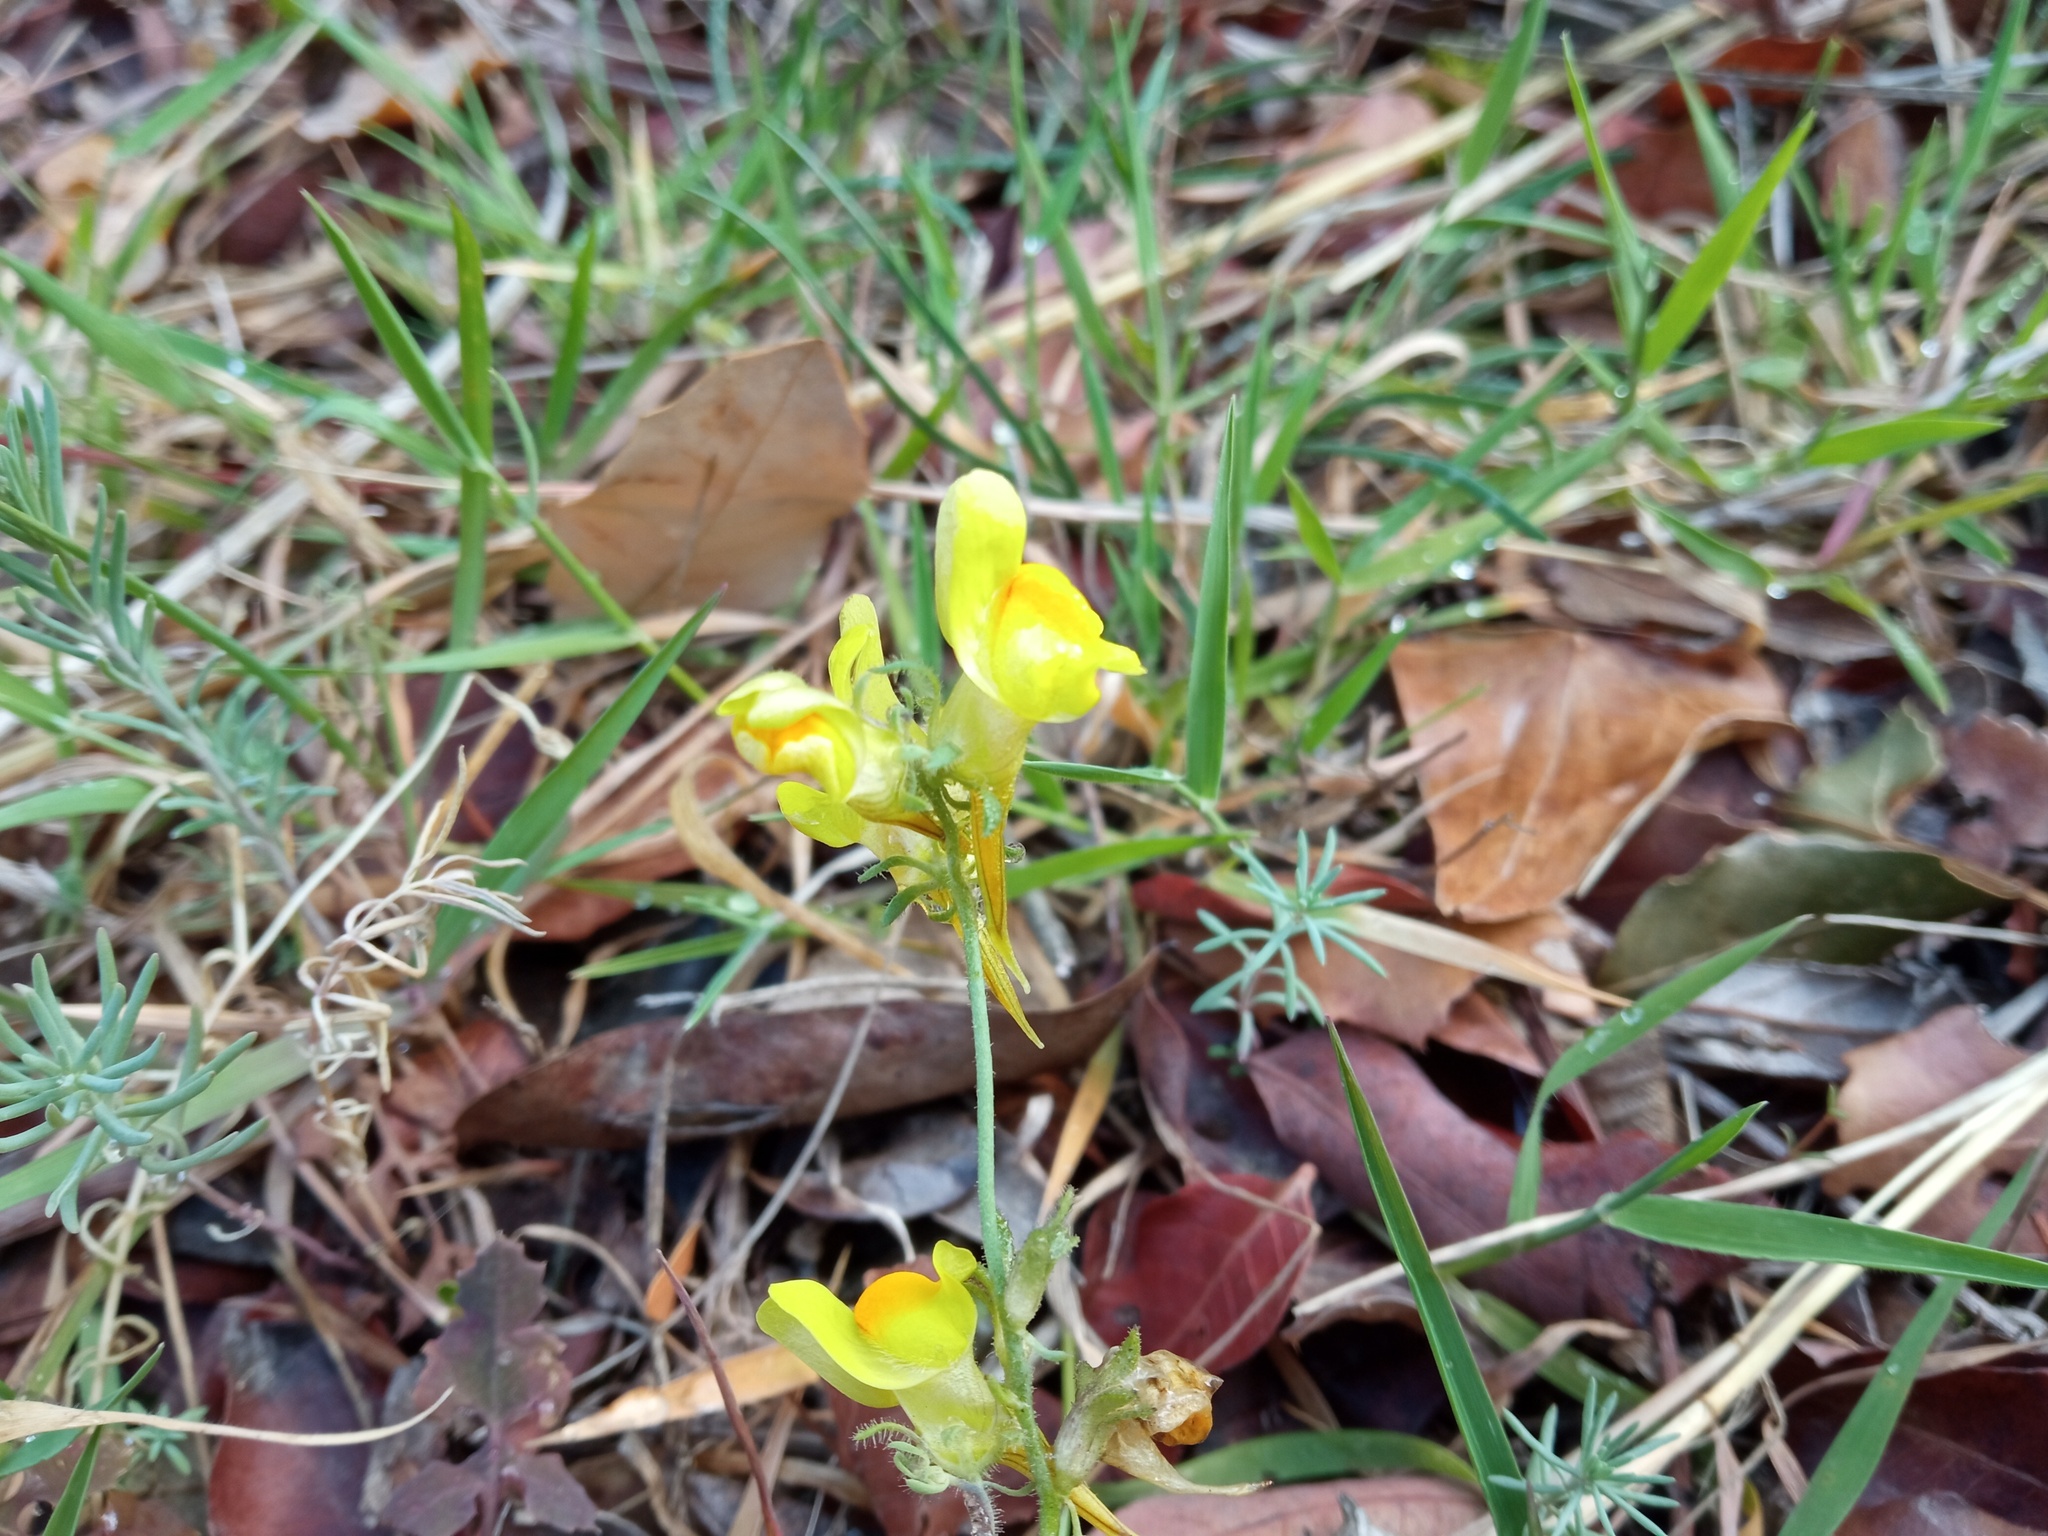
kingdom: Plantae
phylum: Tracheophyta
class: Magnoliopsida
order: Lamiales
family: Plantaginaceae
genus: Linaria
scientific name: Linaria supina
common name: Prostrate toadflax
